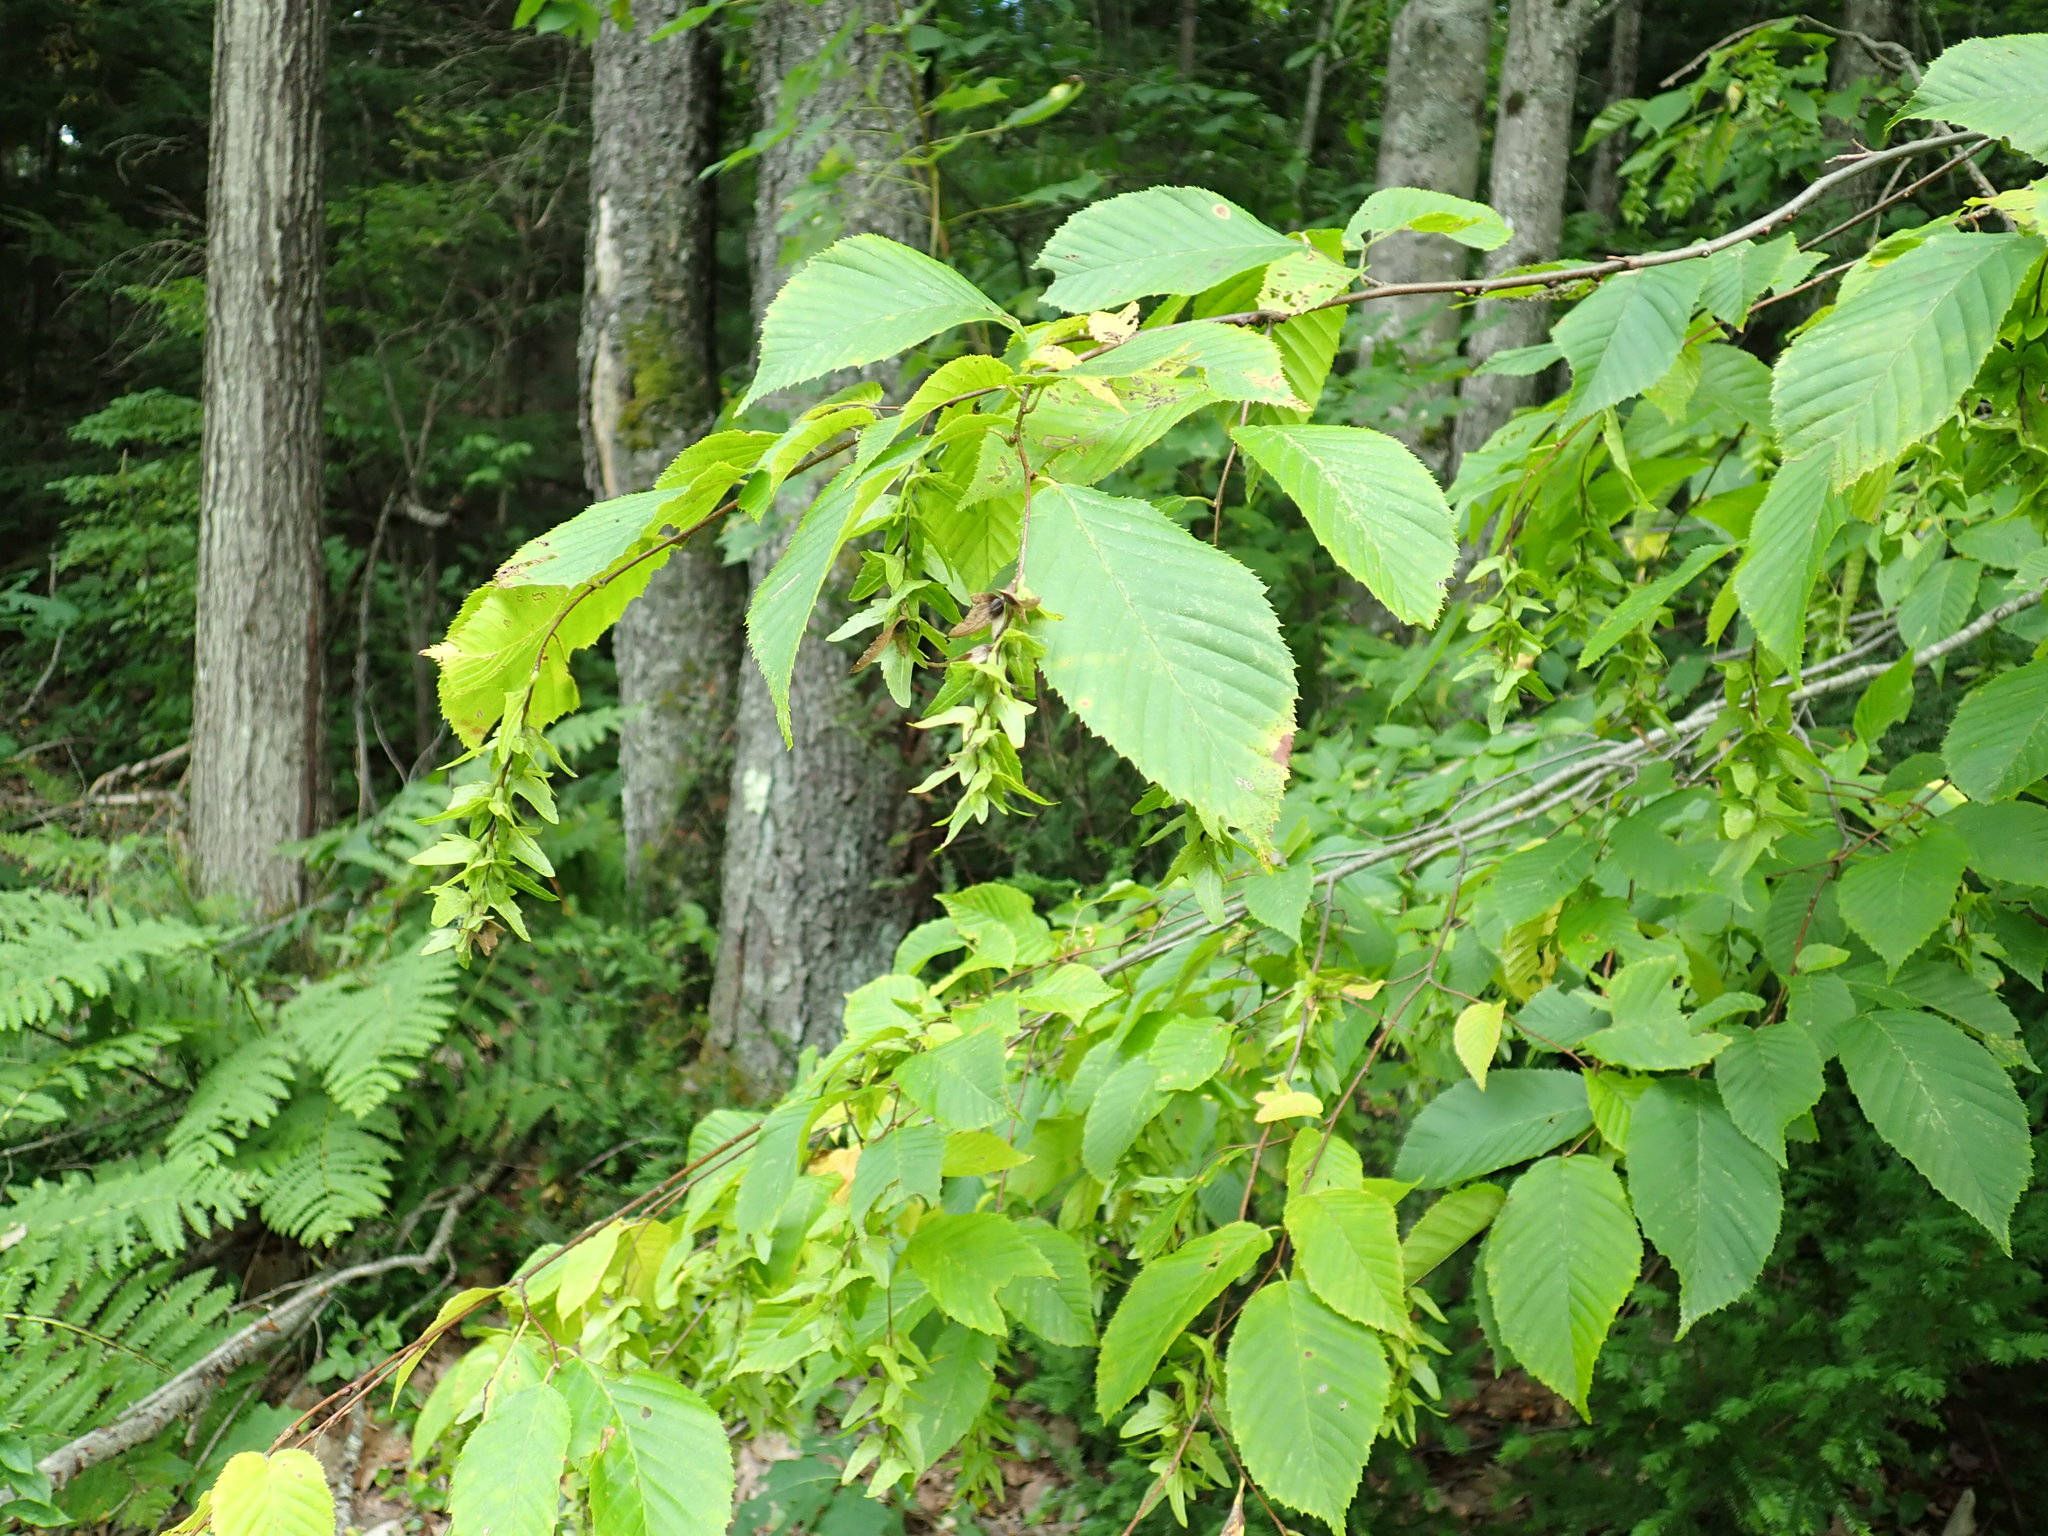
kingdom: Plantae
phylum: Tracheophyta
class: Magnoliopsida
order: Fagales
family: Betulaceae
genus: Carpinus
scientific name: Carpinus caroliniana
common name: American hornbeam
